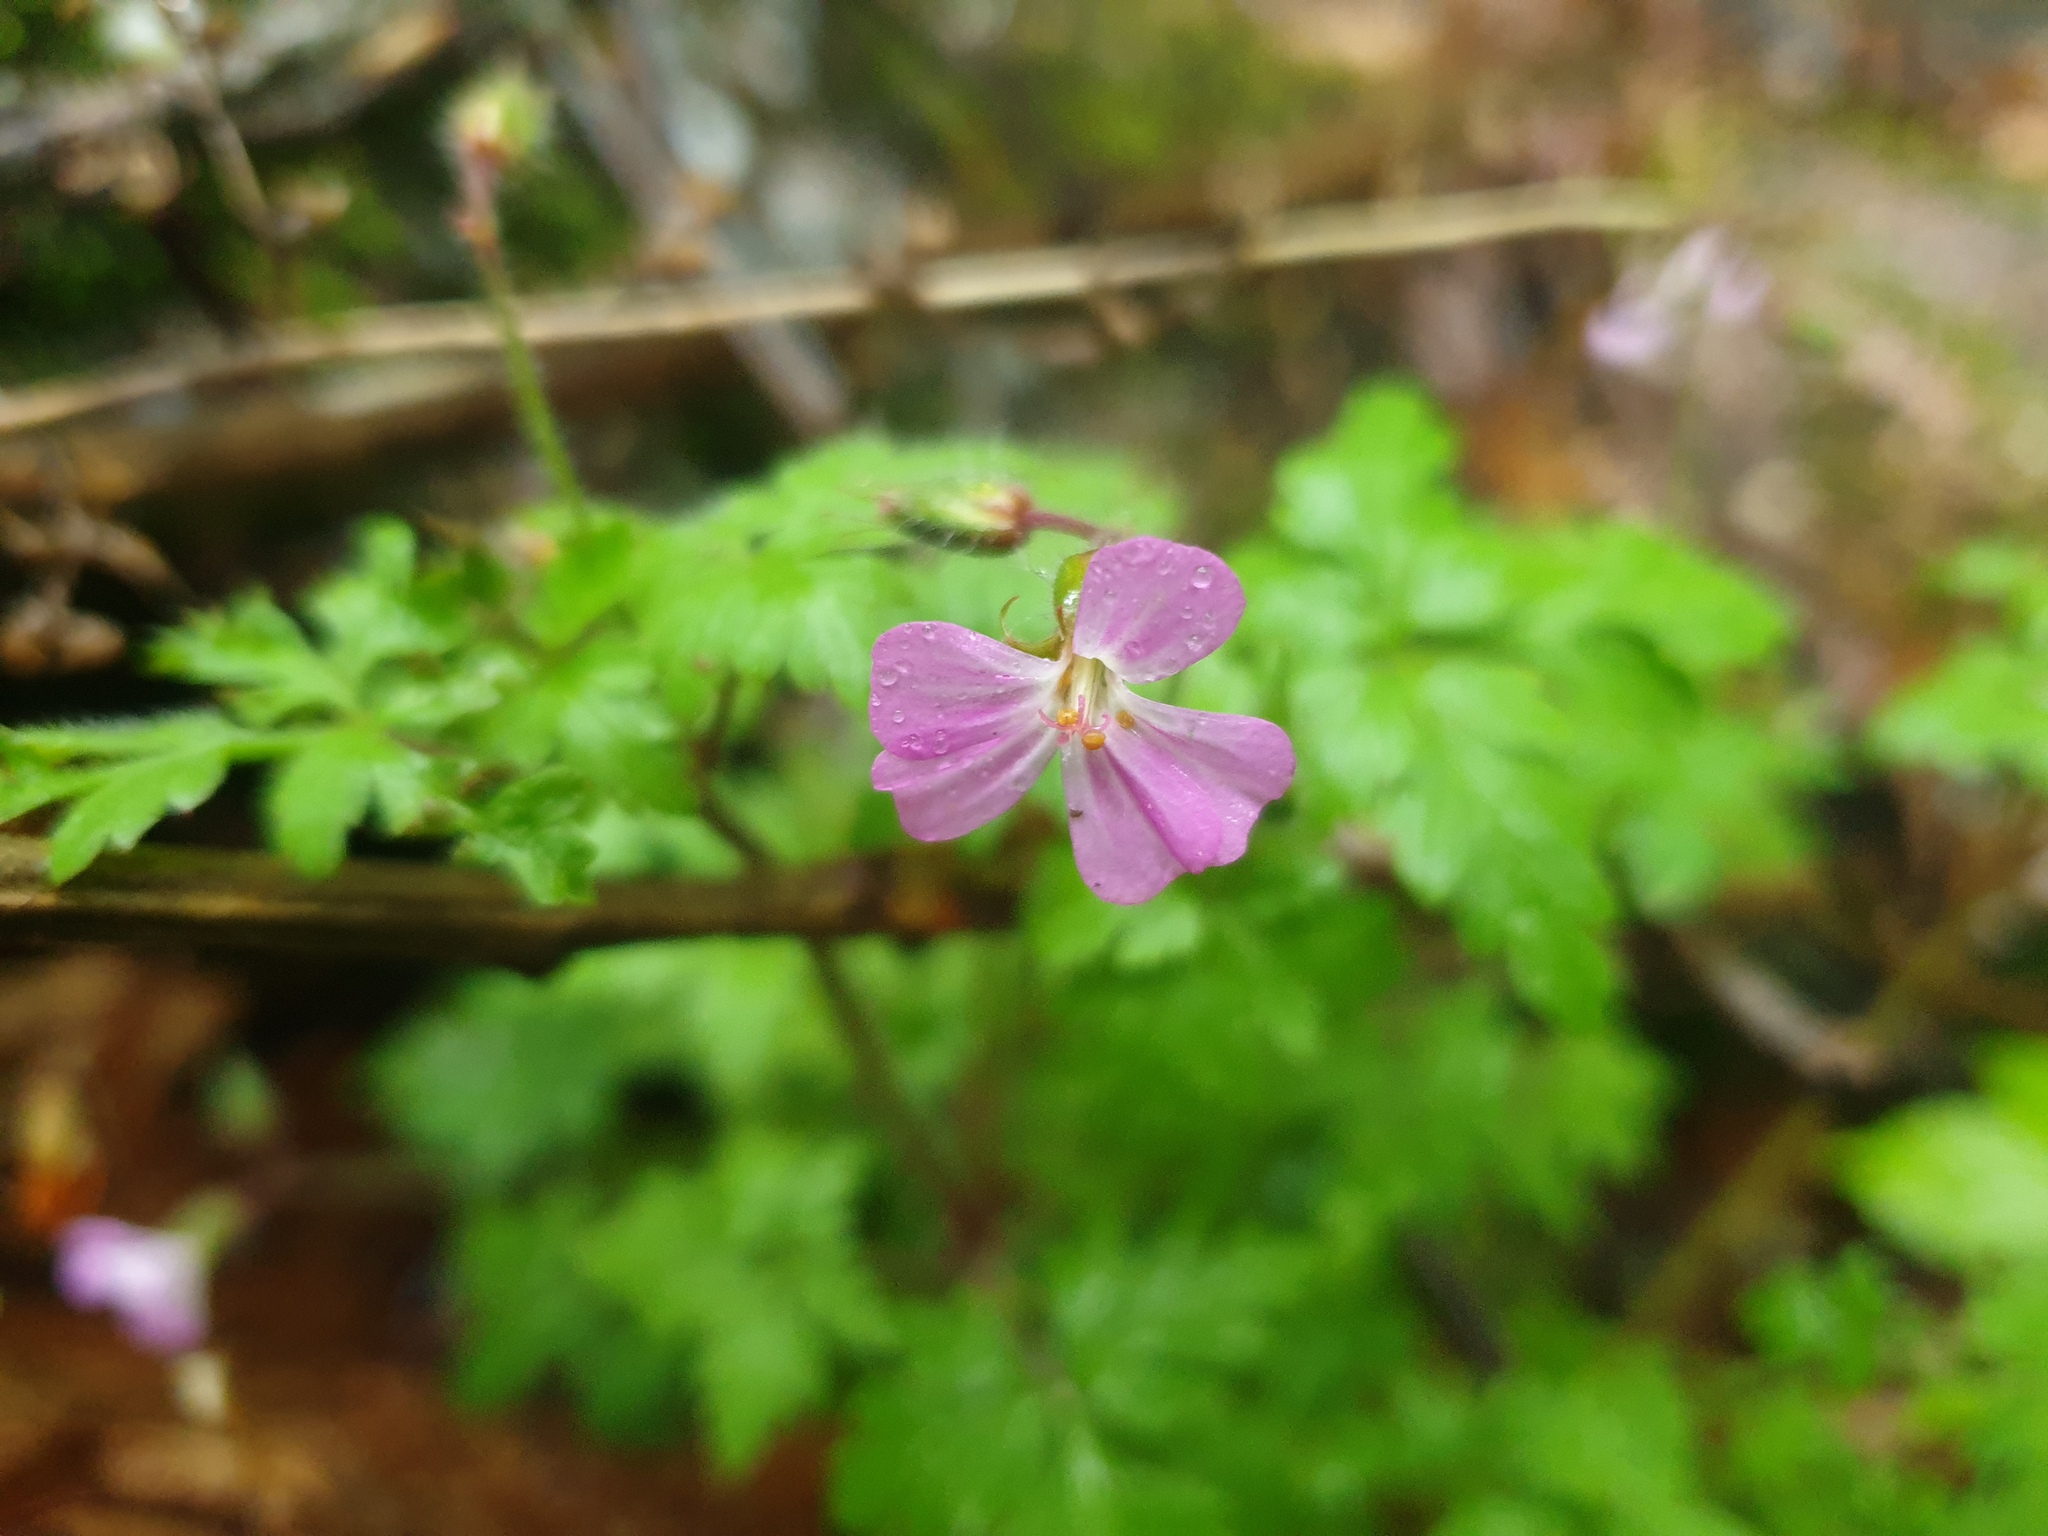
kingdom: Plantae
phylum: Tracheophyta
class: Magnoliopsida
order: Geraniales
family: Geraniaceae
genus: Geranium
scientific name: Geranium robertianum
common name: Herb-robert
